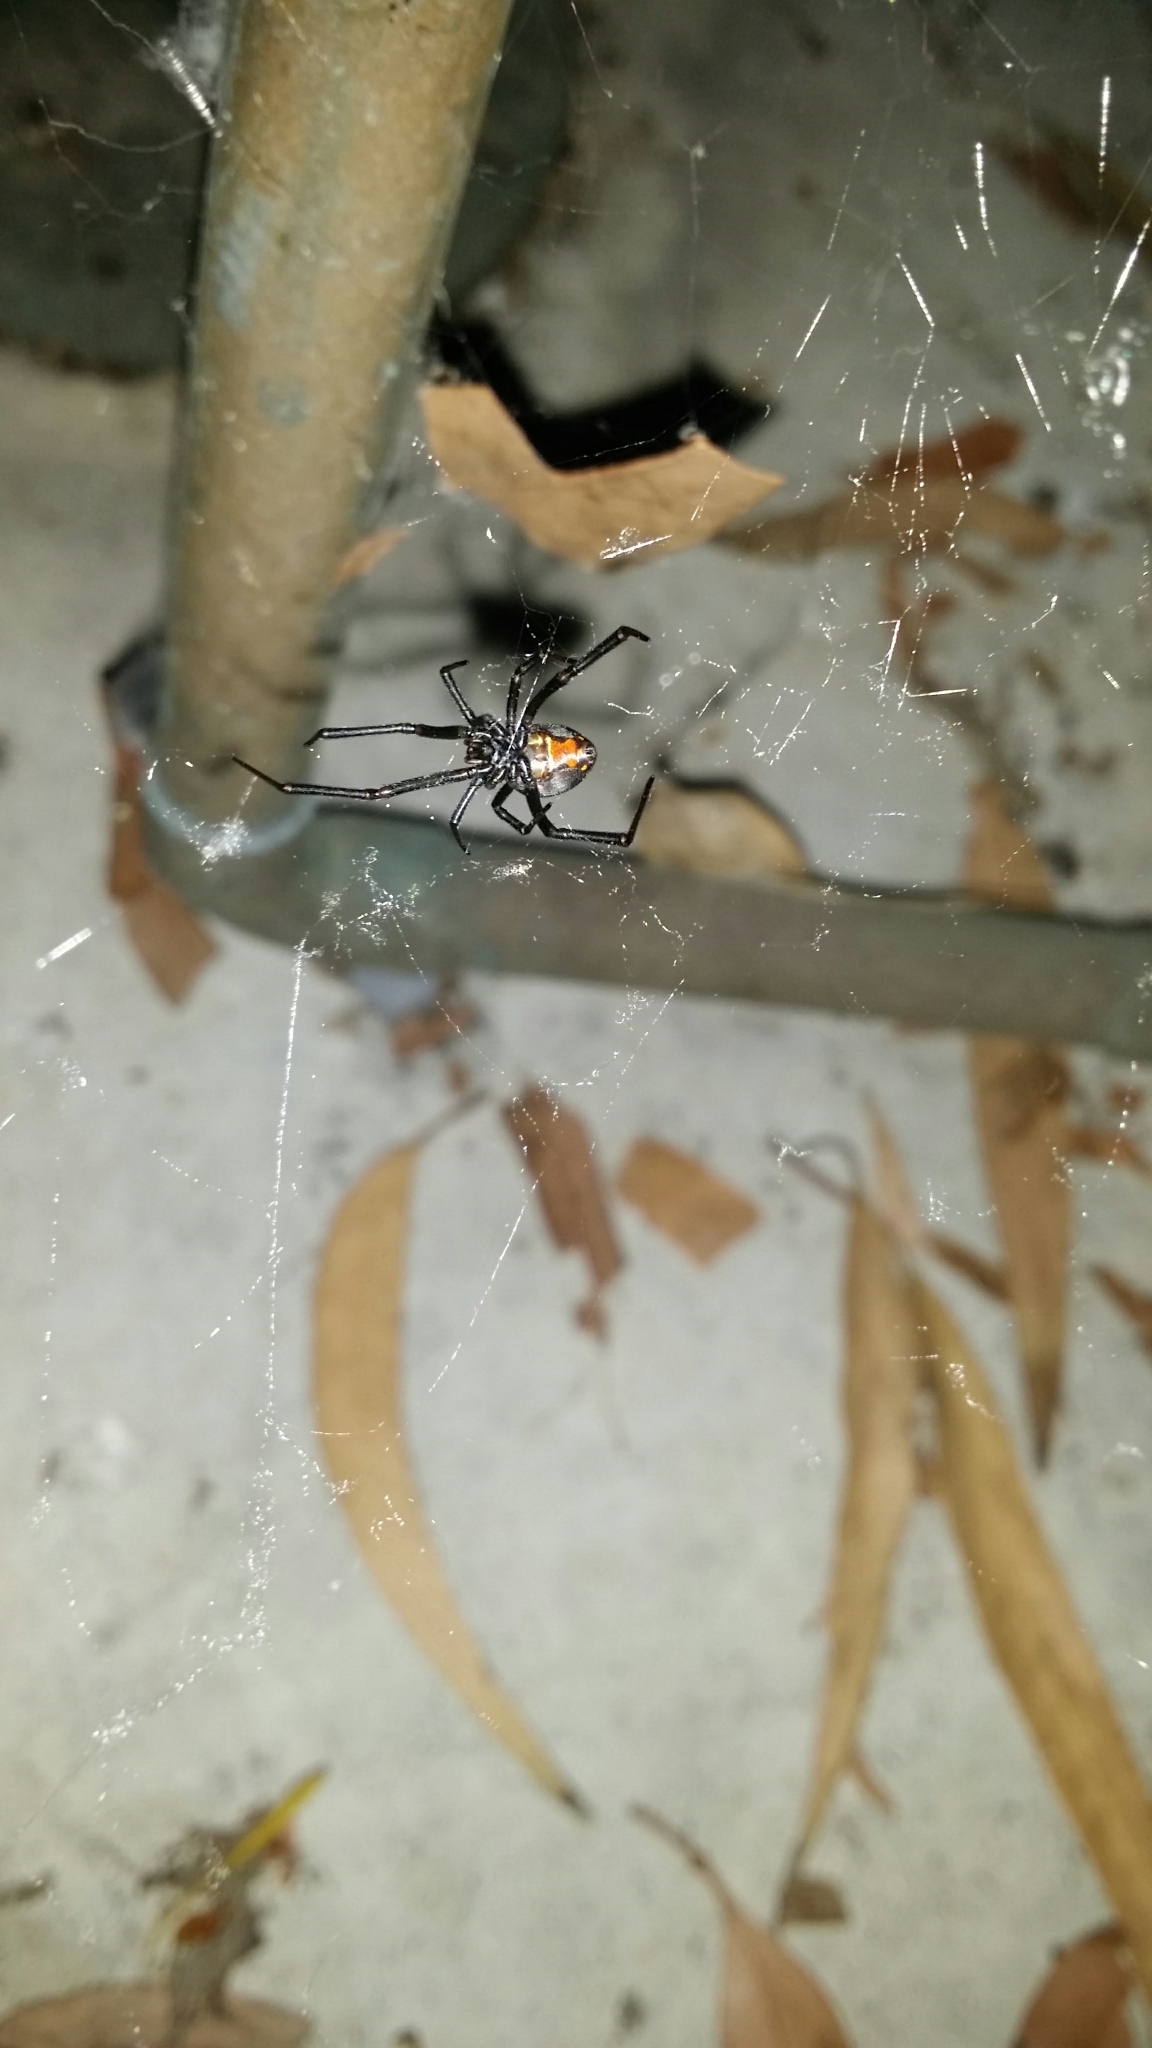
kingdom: Animalia
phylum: Arthropoda
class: Arachnida
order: Araneae
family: Theridiidae
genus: Latrodectus
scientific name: Latrodectus hasselti
